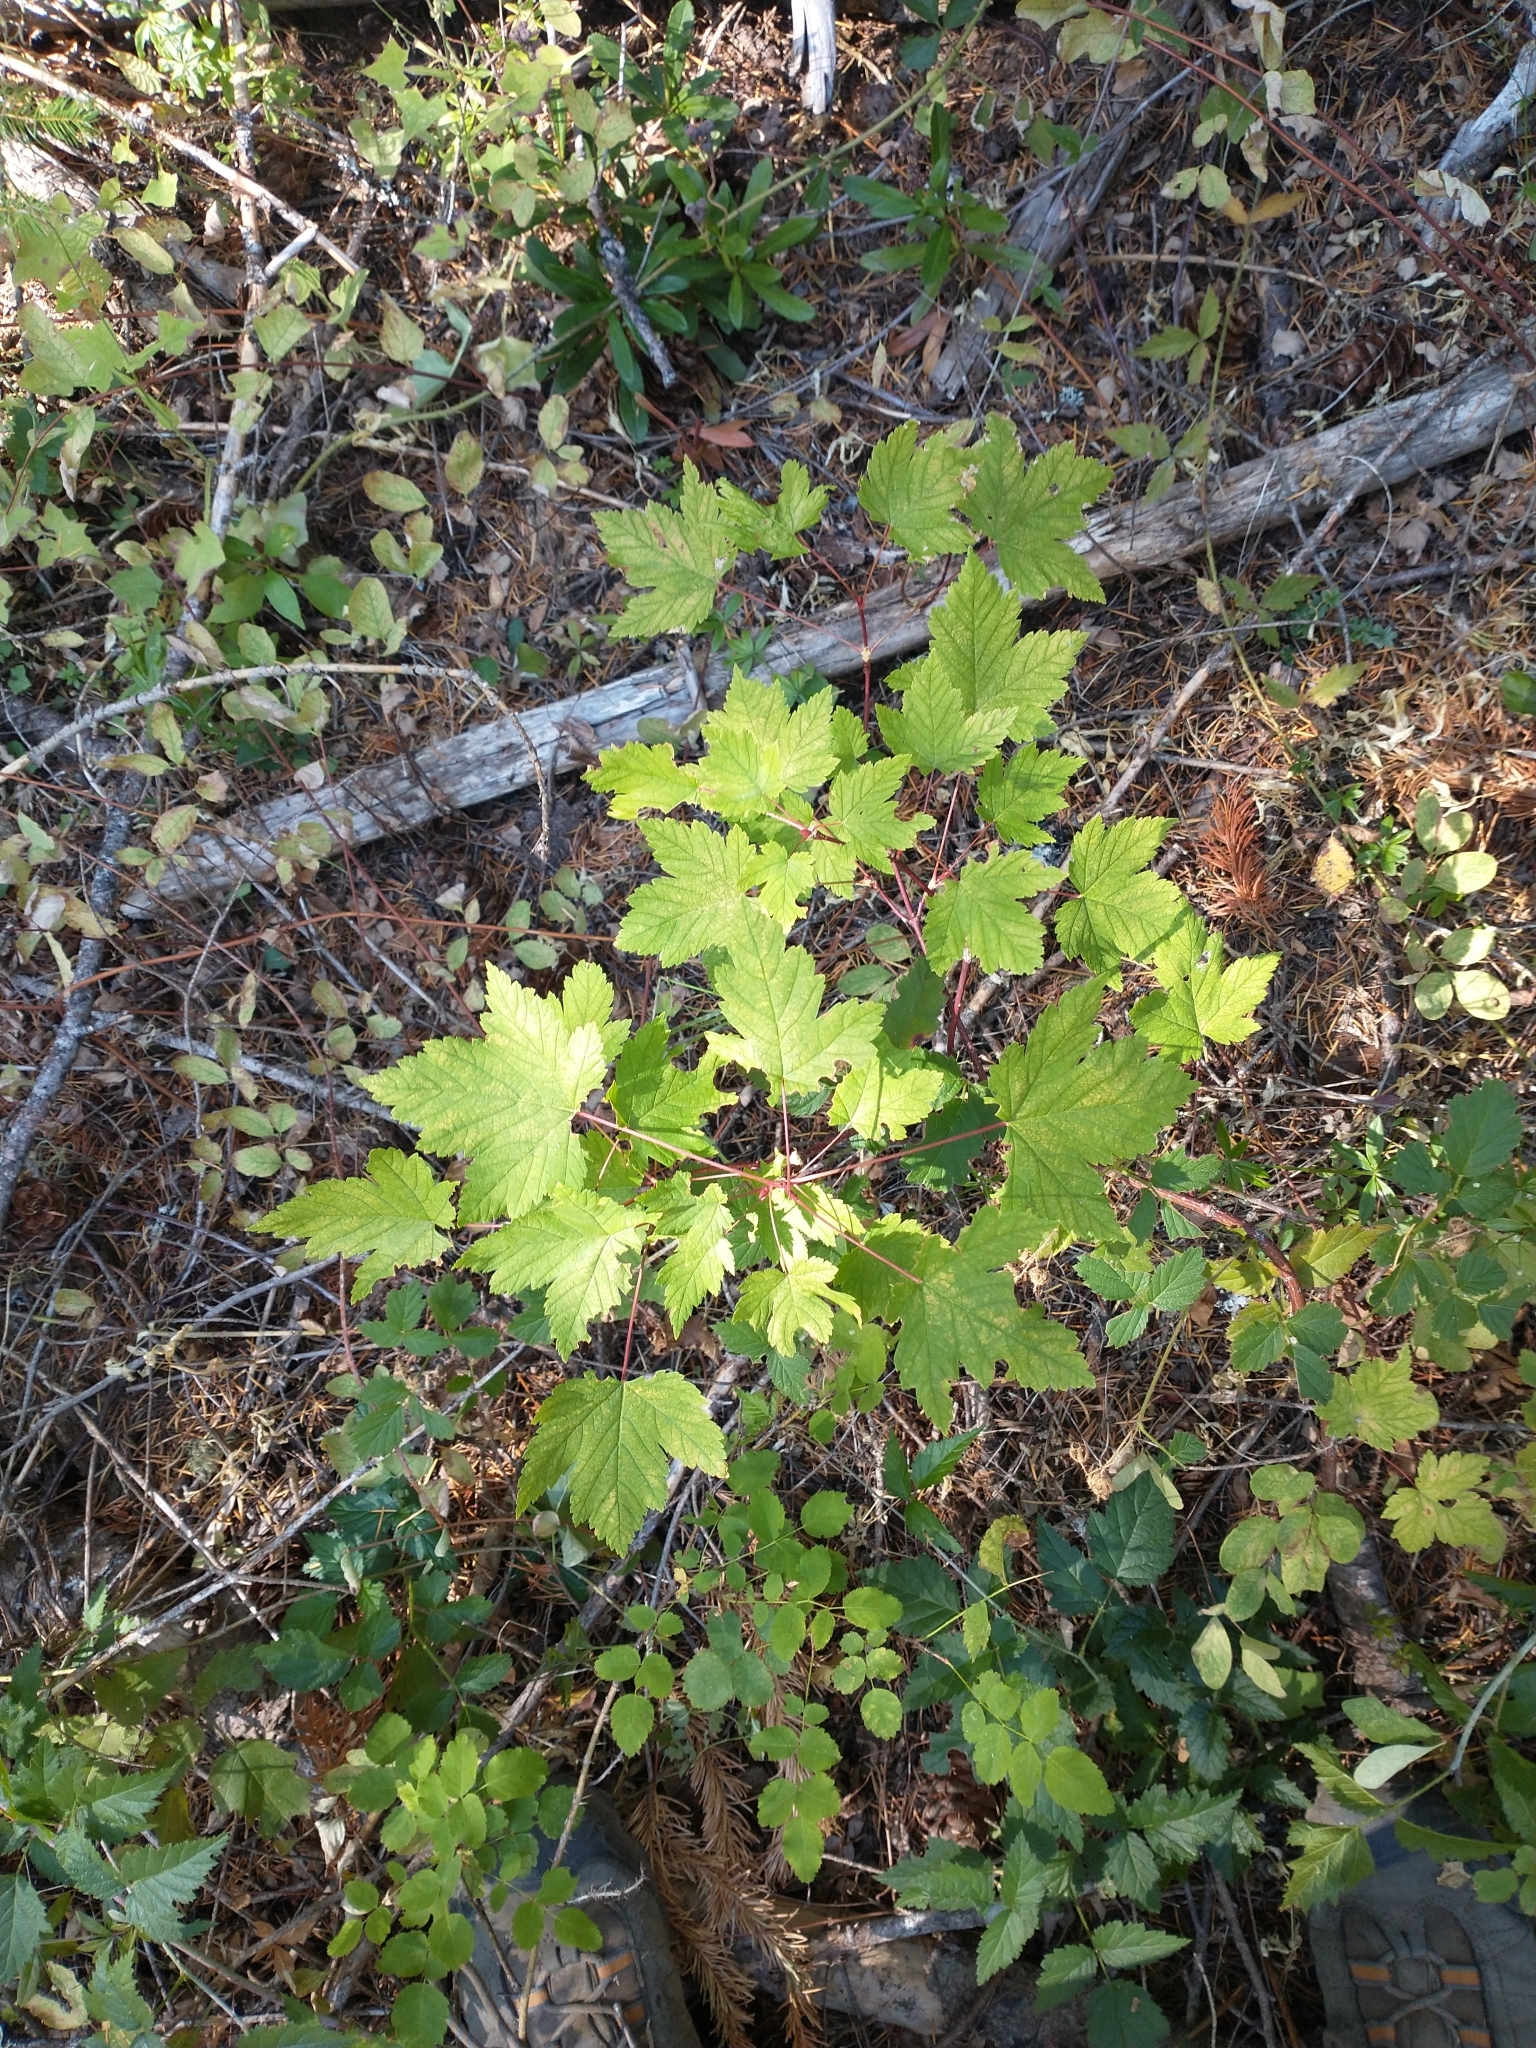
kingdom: Plantae
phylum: Tracheophyta
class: Magnoliopsida
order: Sapindales
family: Sapindaceae
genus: Acer
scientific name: Acer glabrum
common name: Rocky mountain maple
